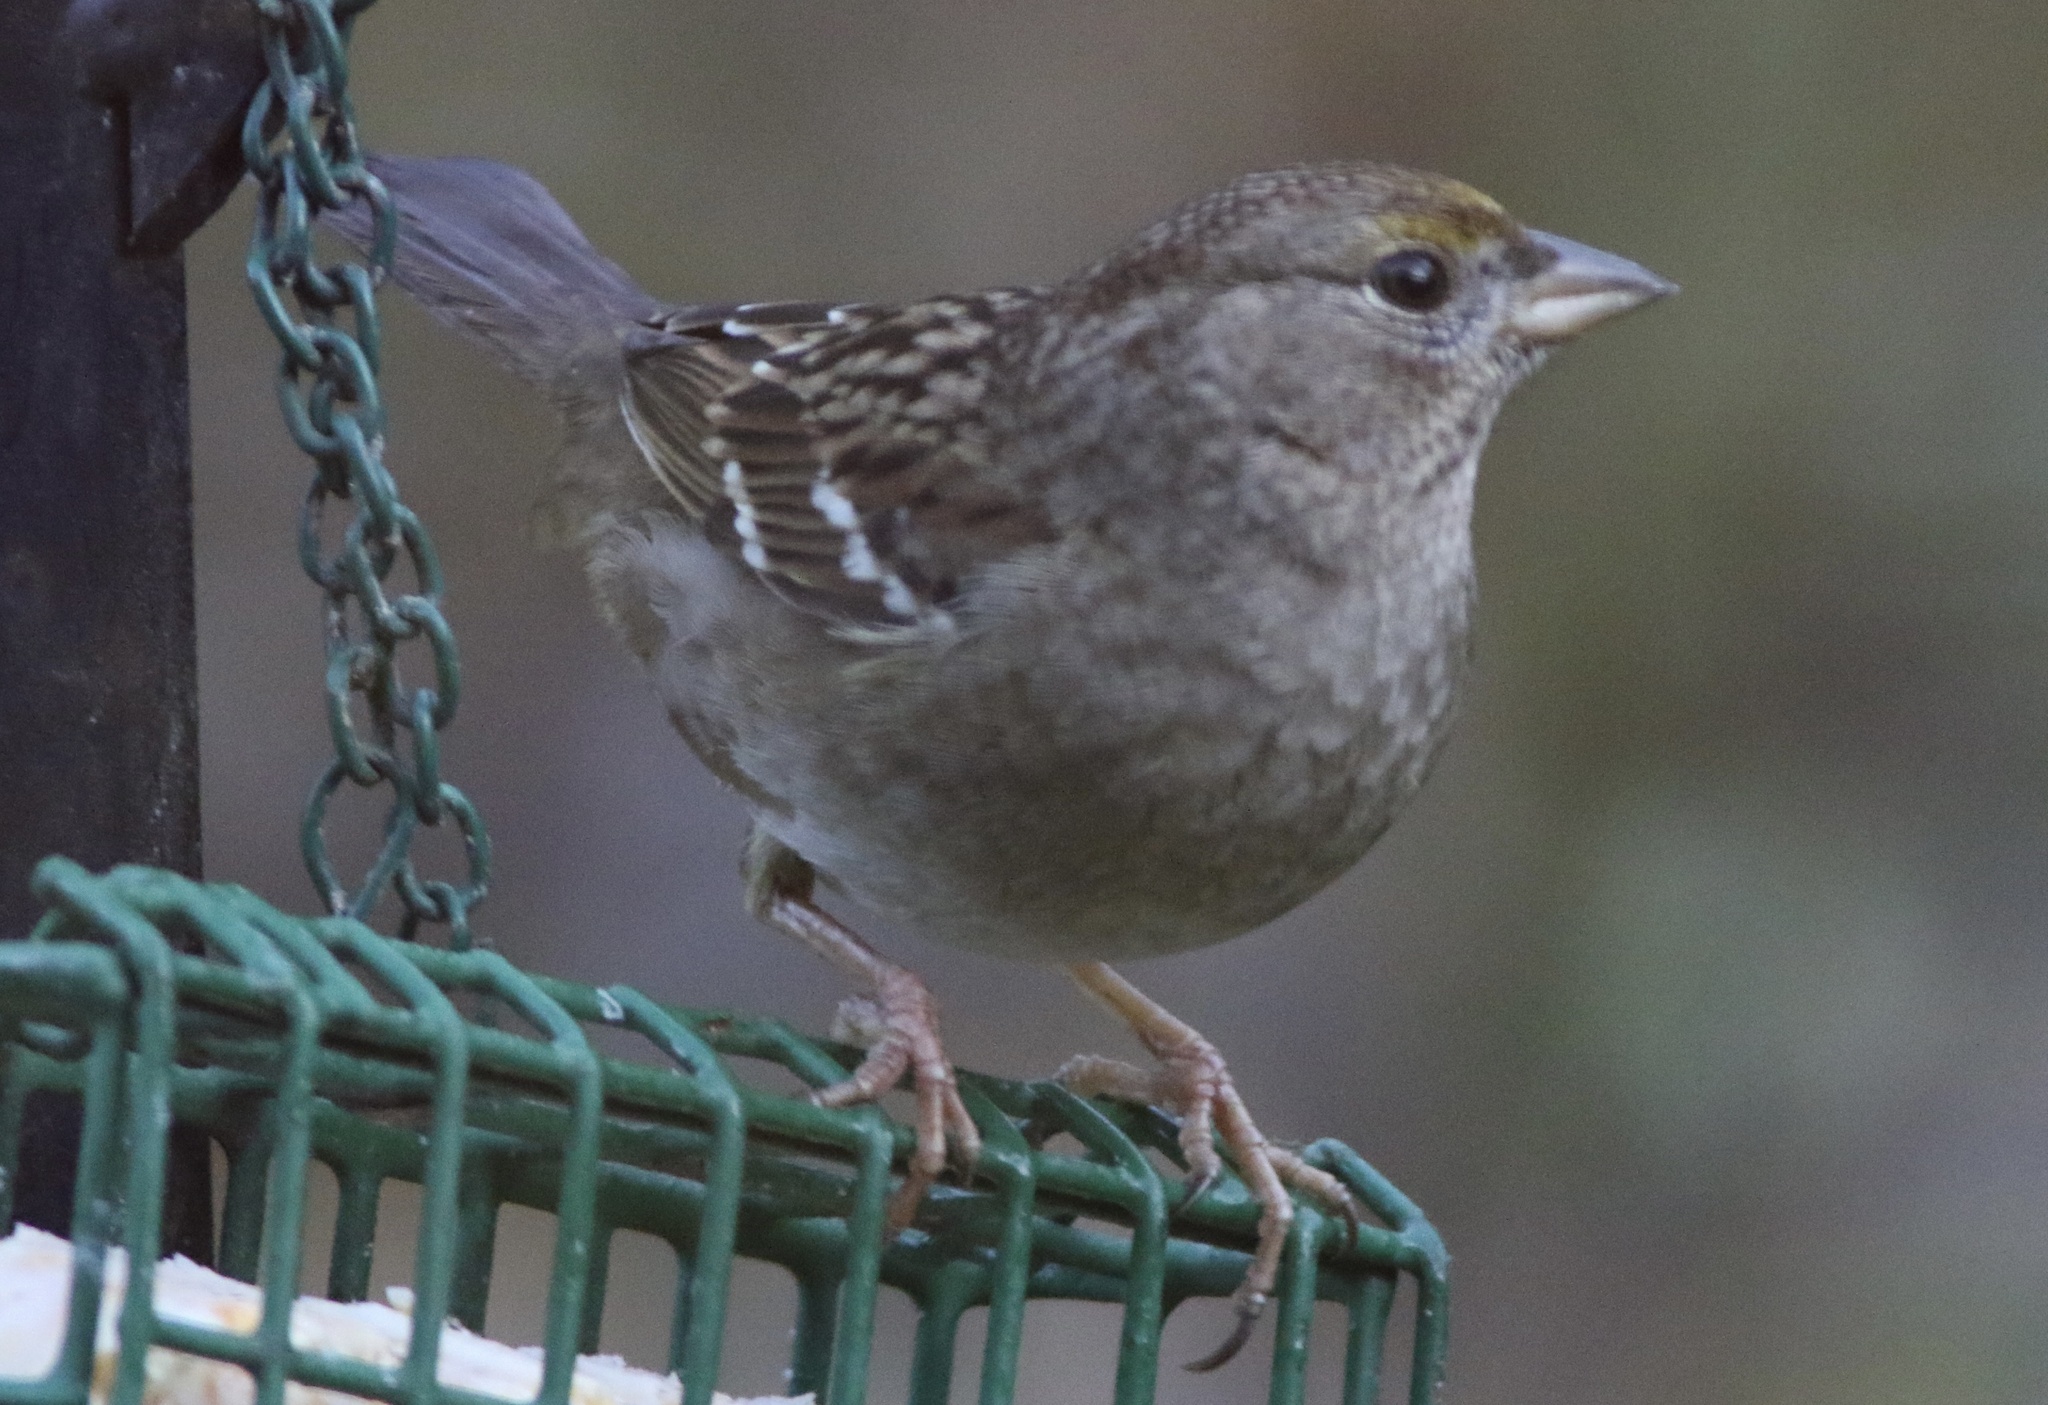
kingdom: Animalia
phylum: Chordata
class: Aves
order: Passeriformes
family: Passerellidae
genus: Zonotrichia
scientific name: Zonotrichia atricapilla
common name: Golden-crowned sparrow
